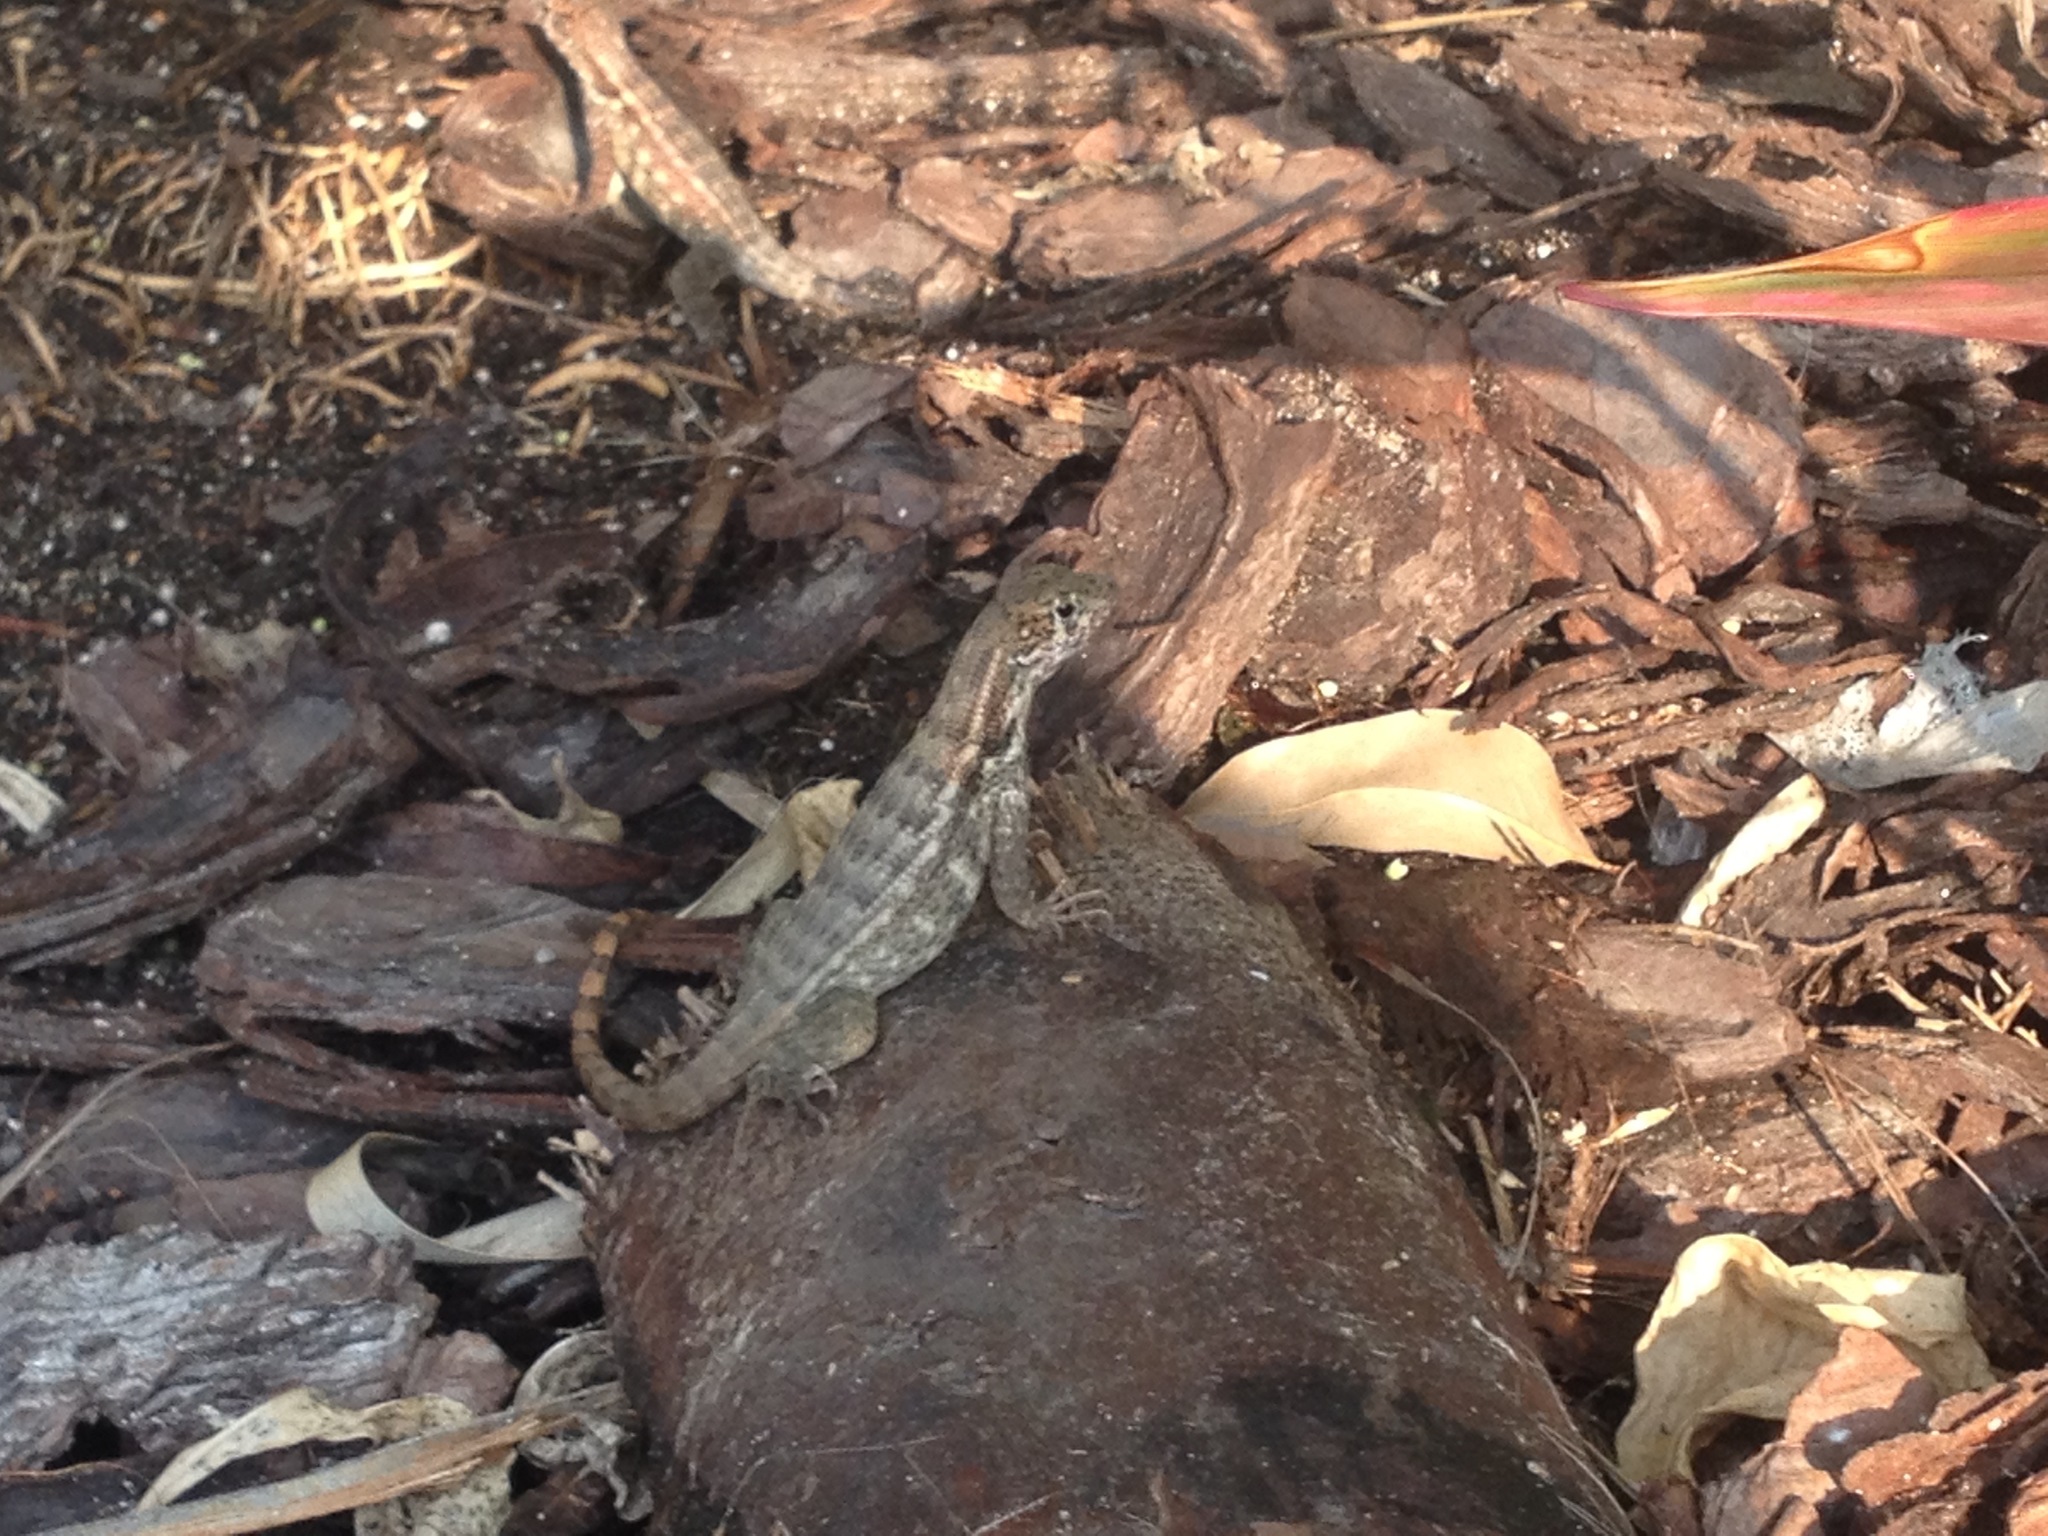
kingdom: Animalia
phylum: Chordata
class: Squamata
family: Leiocephalidae
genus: Leiocephalus
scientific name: Leiocephalus varius
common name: Cayman curlytail
